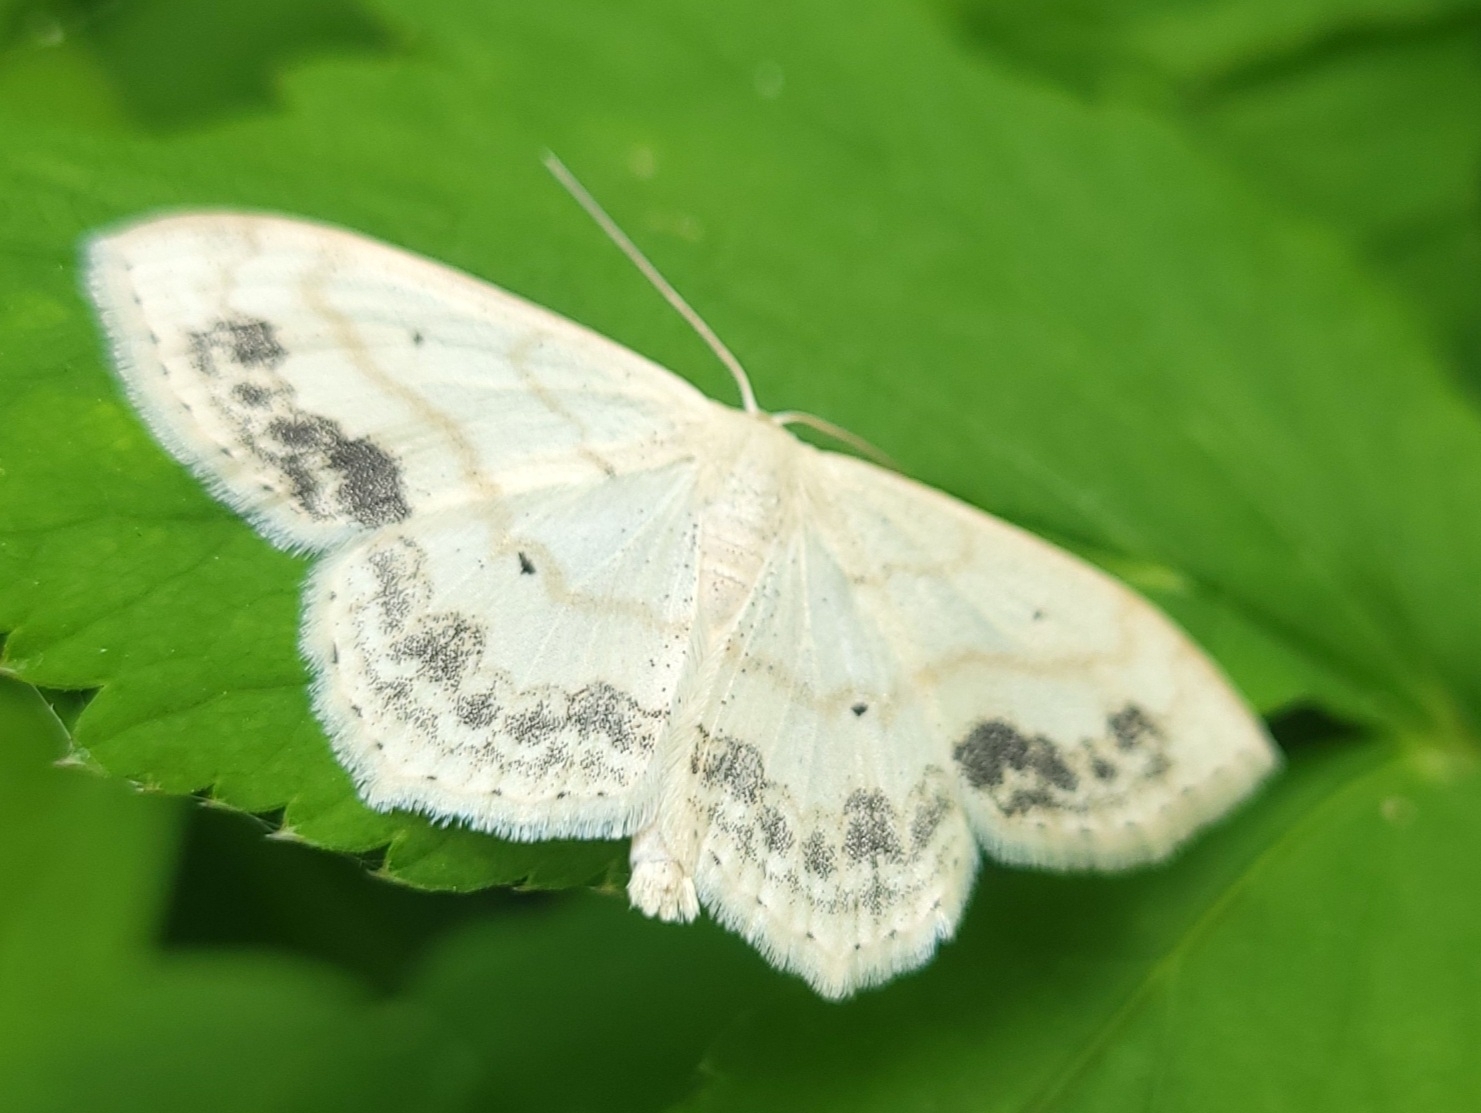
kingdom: Animalia
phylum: Arthropoda
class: Insecta
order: Lepidoptera
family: Geometridae
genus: Scopula
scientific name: Scopula limboundata
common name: Large lace border
